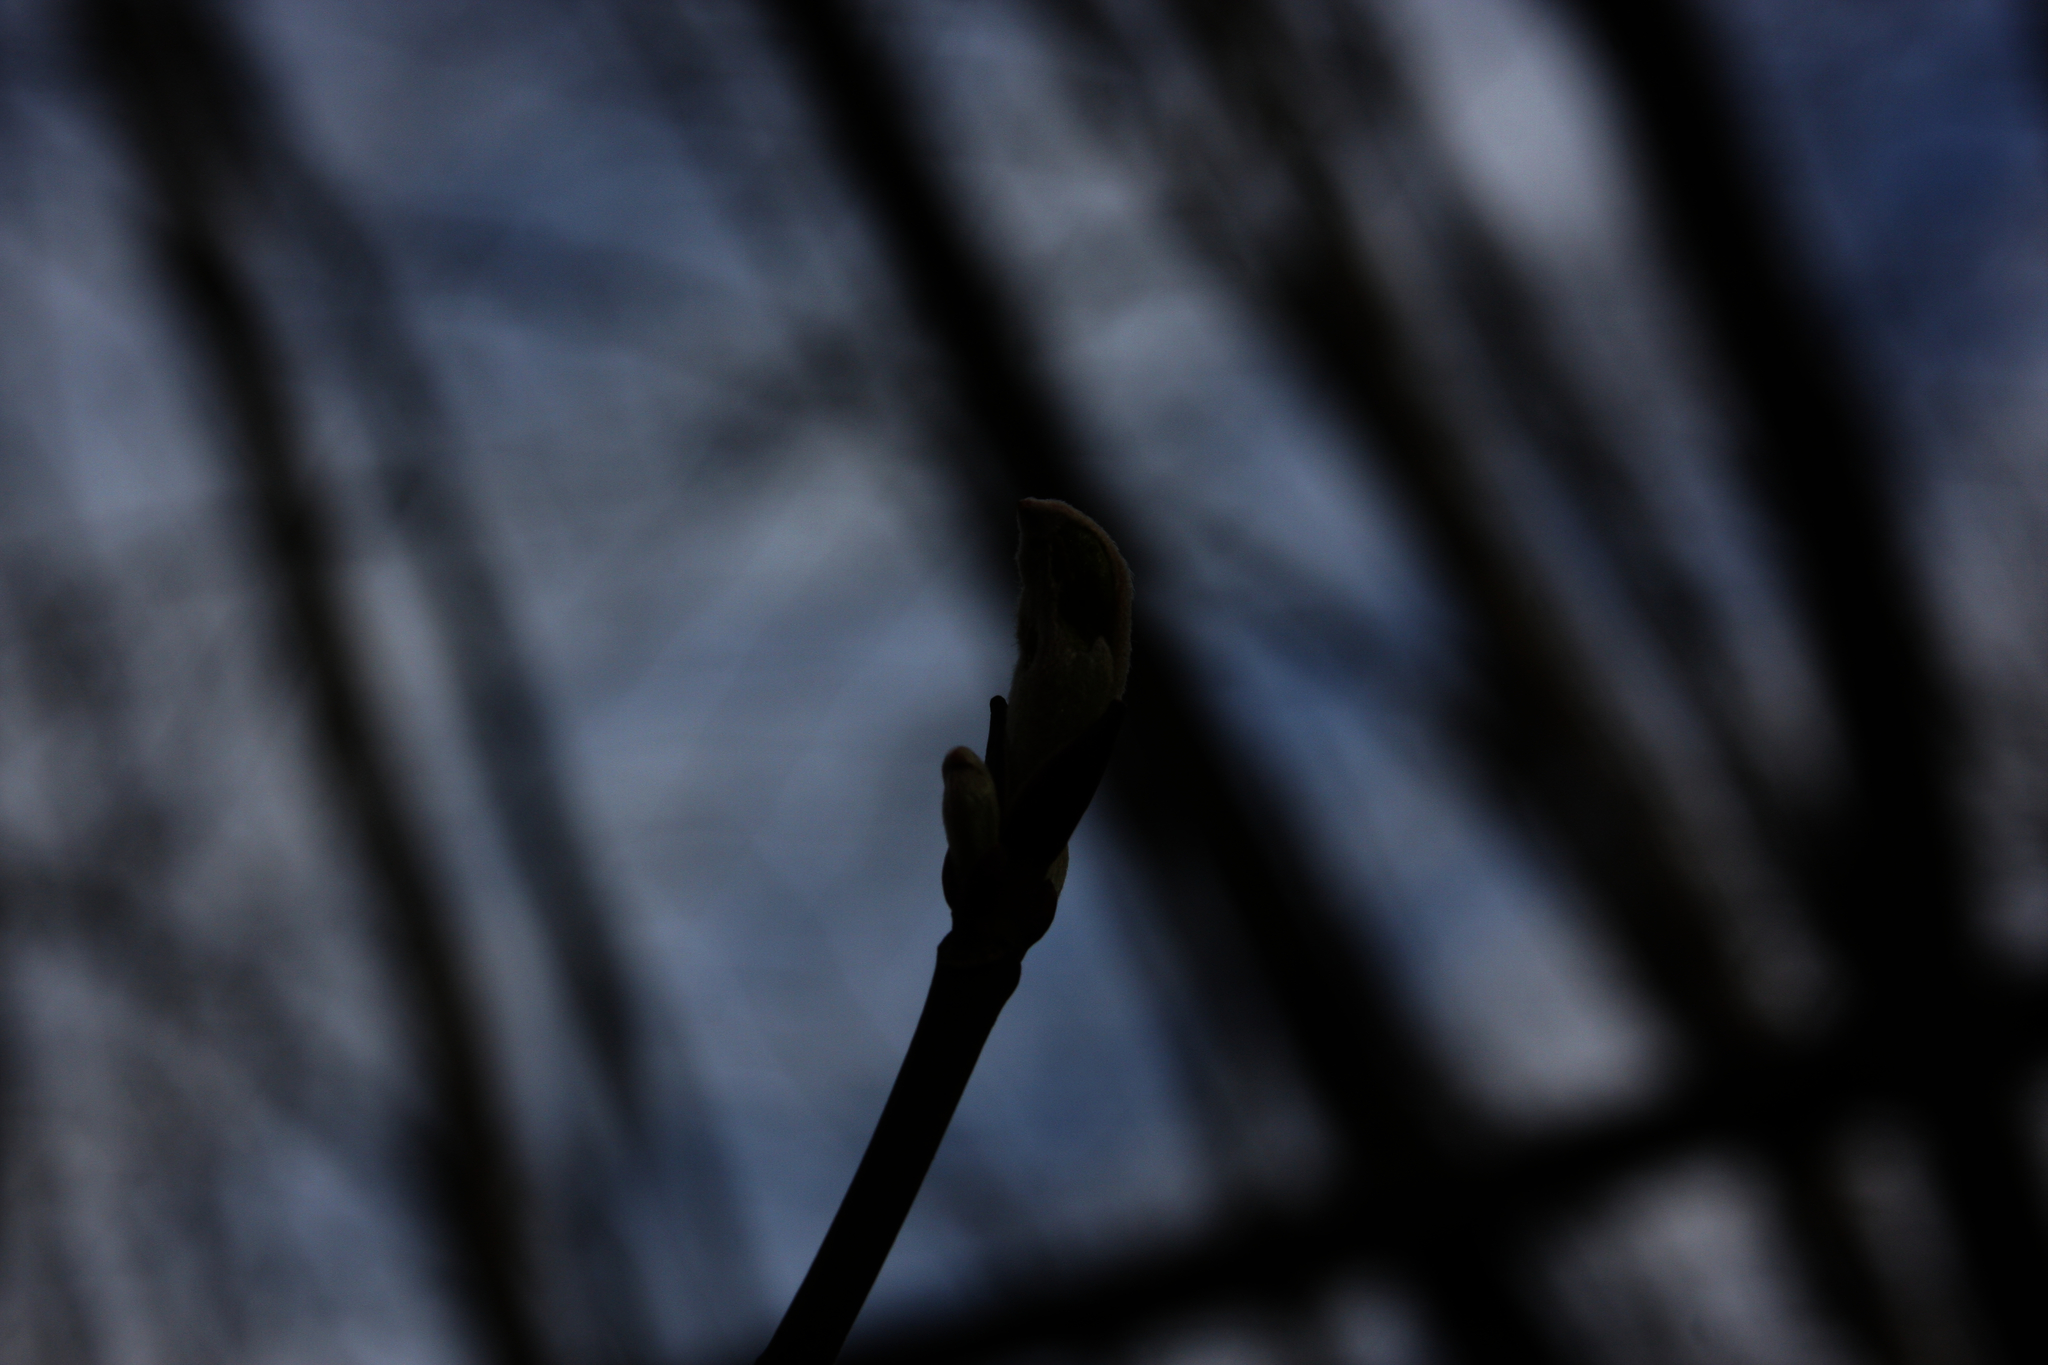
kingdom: Plantae
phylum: Tracheophyta
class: Magnoliopsida
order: Sapindales
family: Sapindaceae
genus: Acer
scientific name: Acer pensylvanicum
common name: Moosewood
